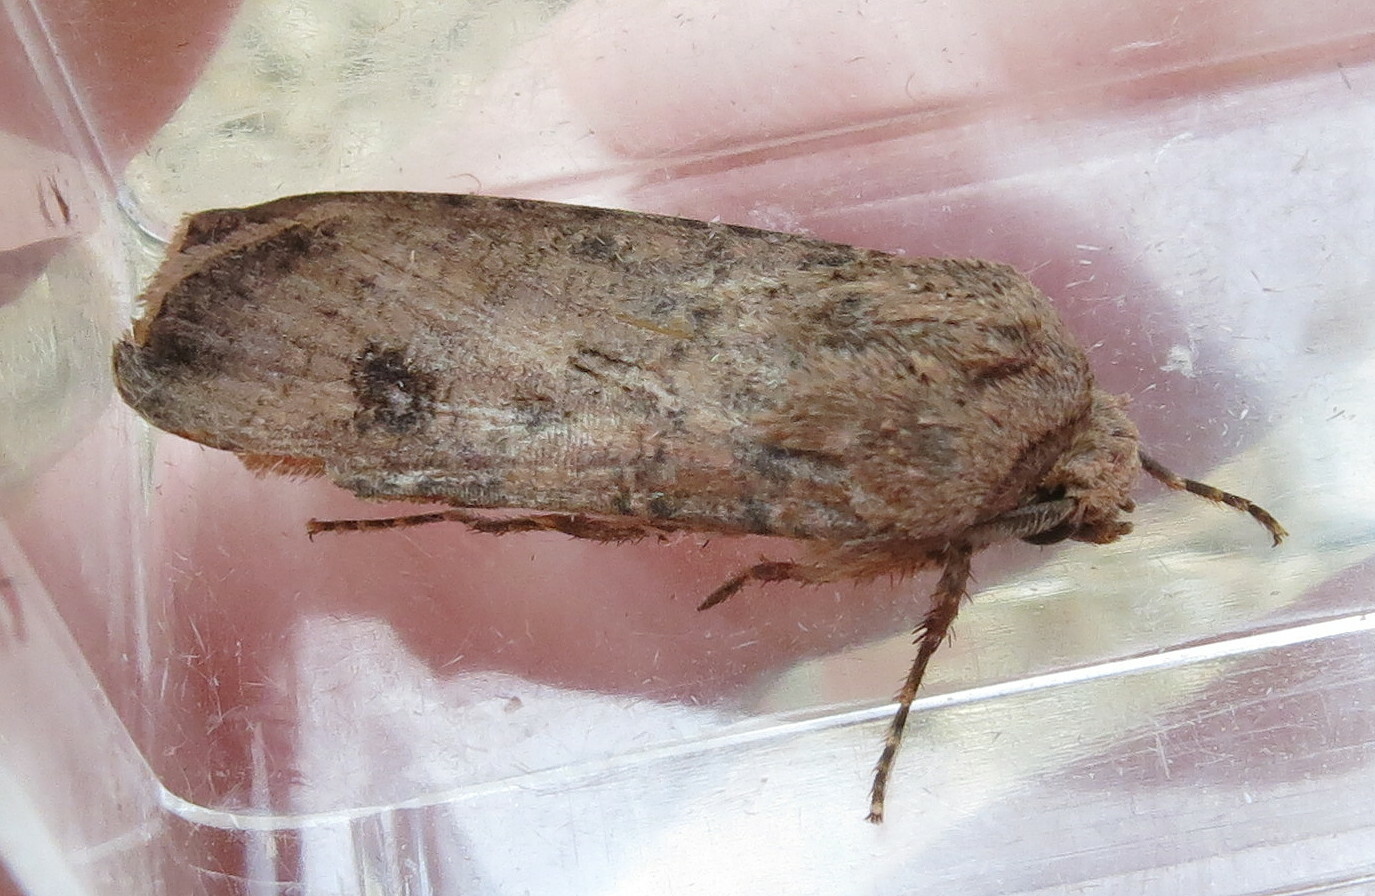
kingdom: Animalia
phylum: Arthropoda
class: Insecta
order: Lepidoptera
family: Noctuidae
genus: Agrotis
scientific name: Agrotis segetum
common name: Turnip moth
